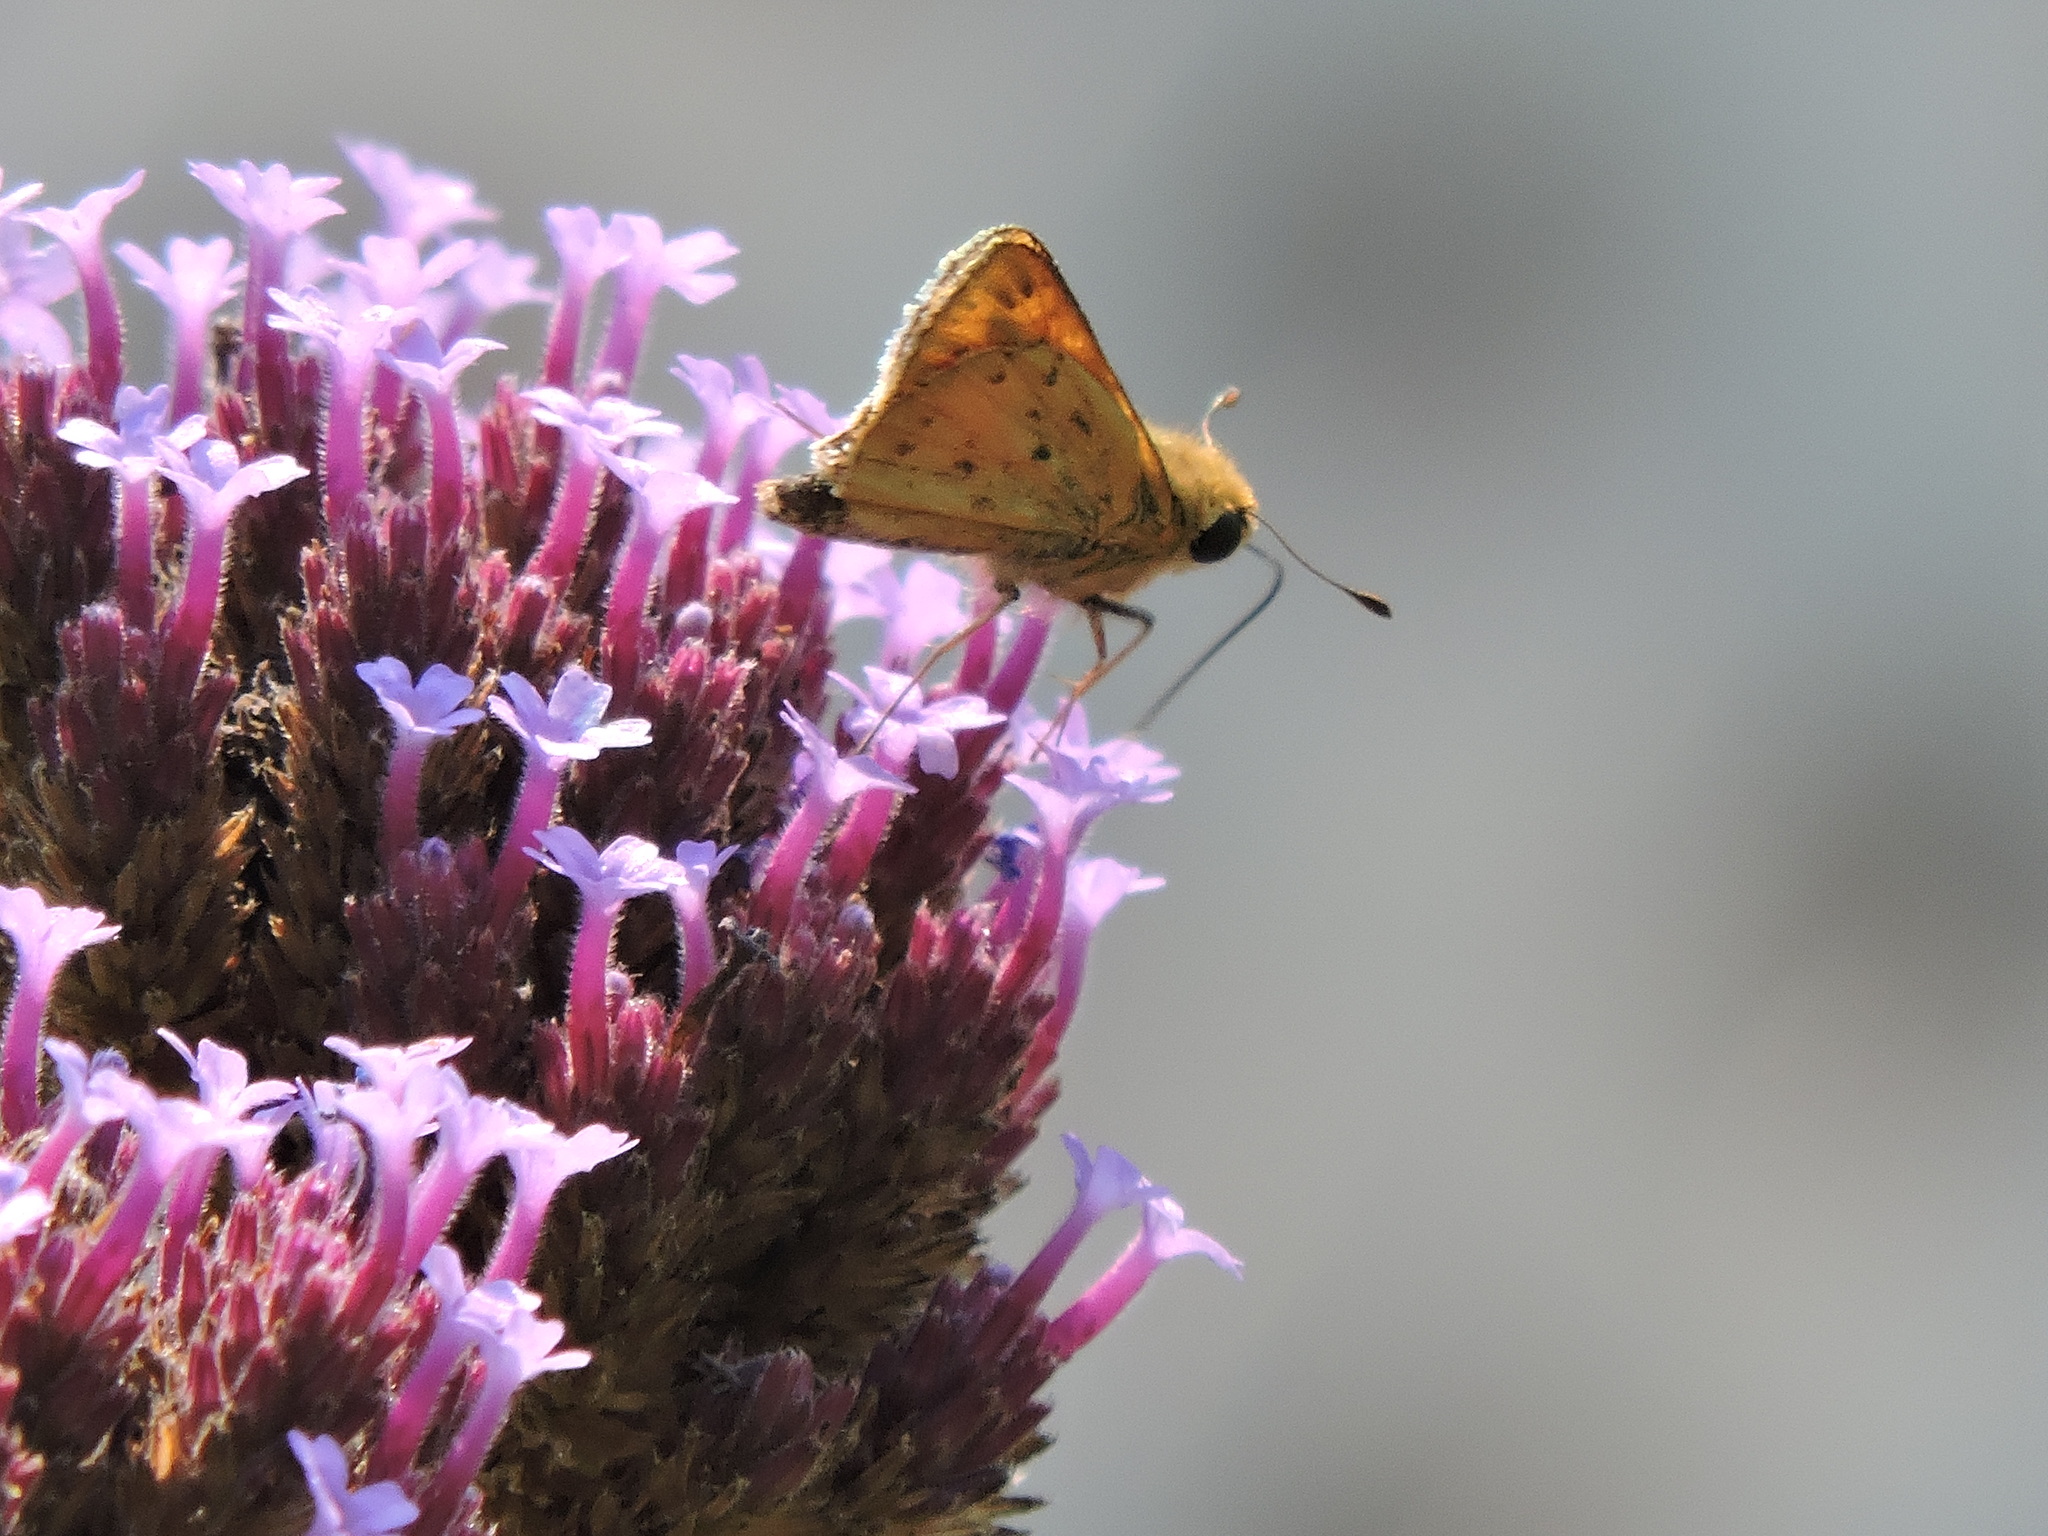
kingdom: Animalia
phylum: Arthropoda
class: Insecta
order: Lepidoptera
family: Hesperiidae
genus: Hylephila
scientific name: Hylephila phyleus
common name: Fiery skipper
